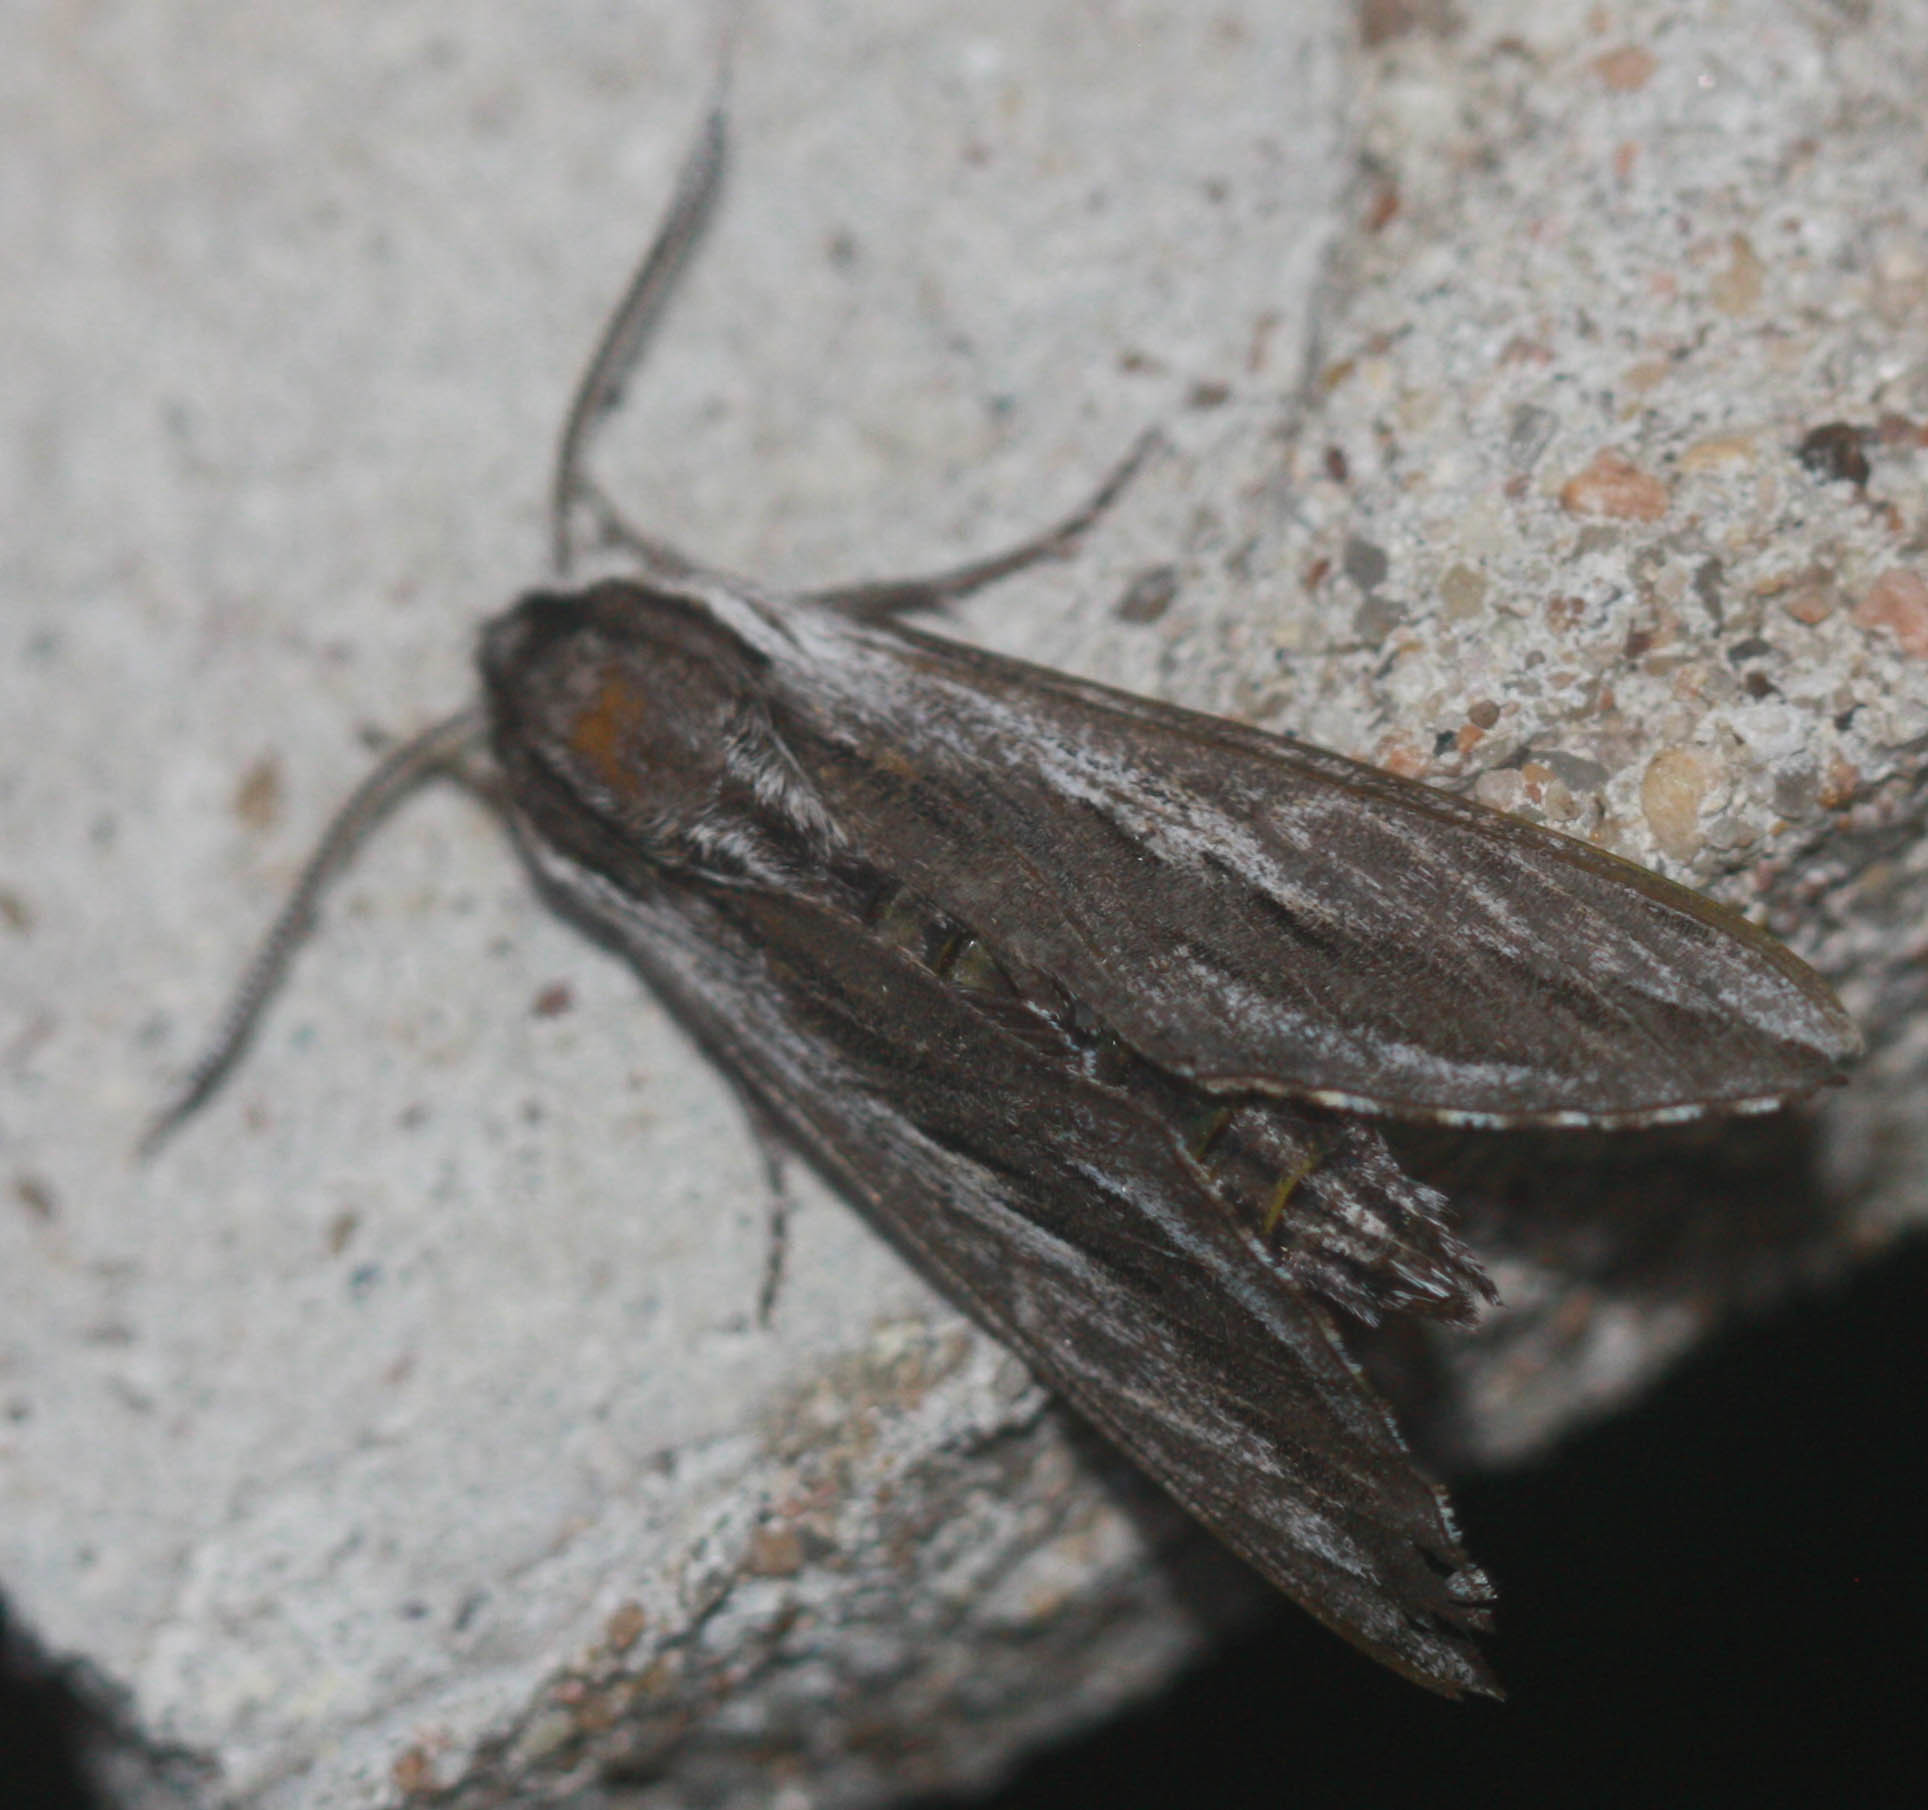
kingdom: Animalia
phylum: Arthropoda
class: Insecta
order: Lepidoptera
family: Sphingidae
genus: Sphinx
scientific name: Sphinx vanbuskirki
